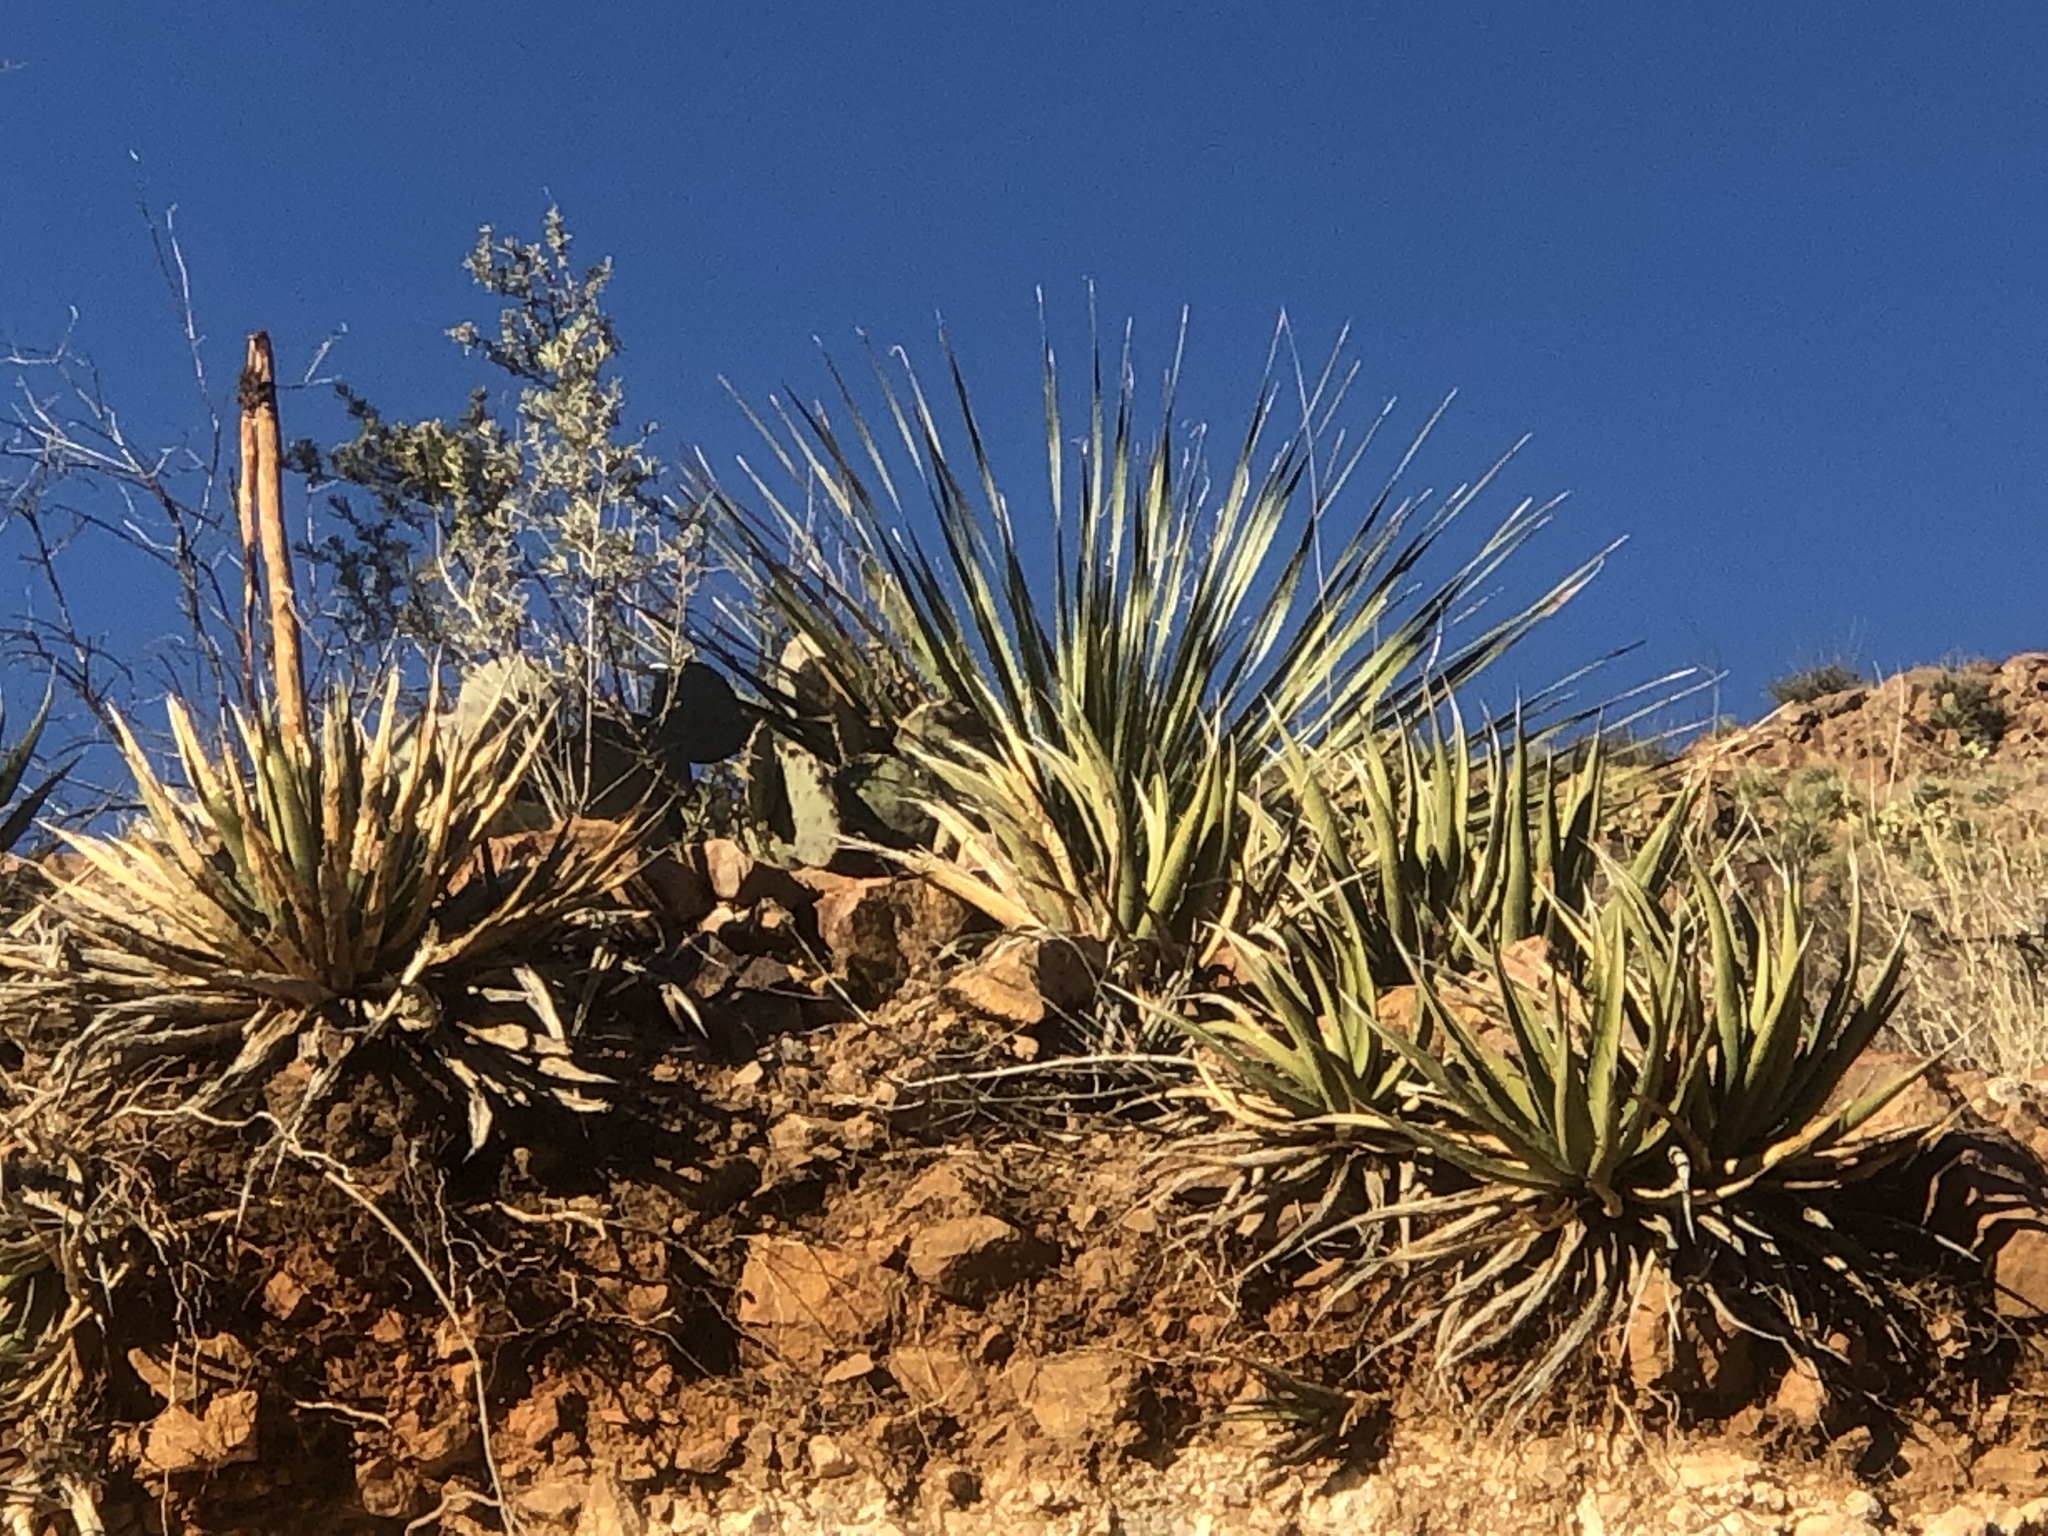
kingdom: Plantae
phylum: Tracheophyta
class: Liliopsida
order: Asparagales
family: Asparagaceae
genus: Agave
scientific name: Agave lechuguilla
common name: Lecheguilla agave
